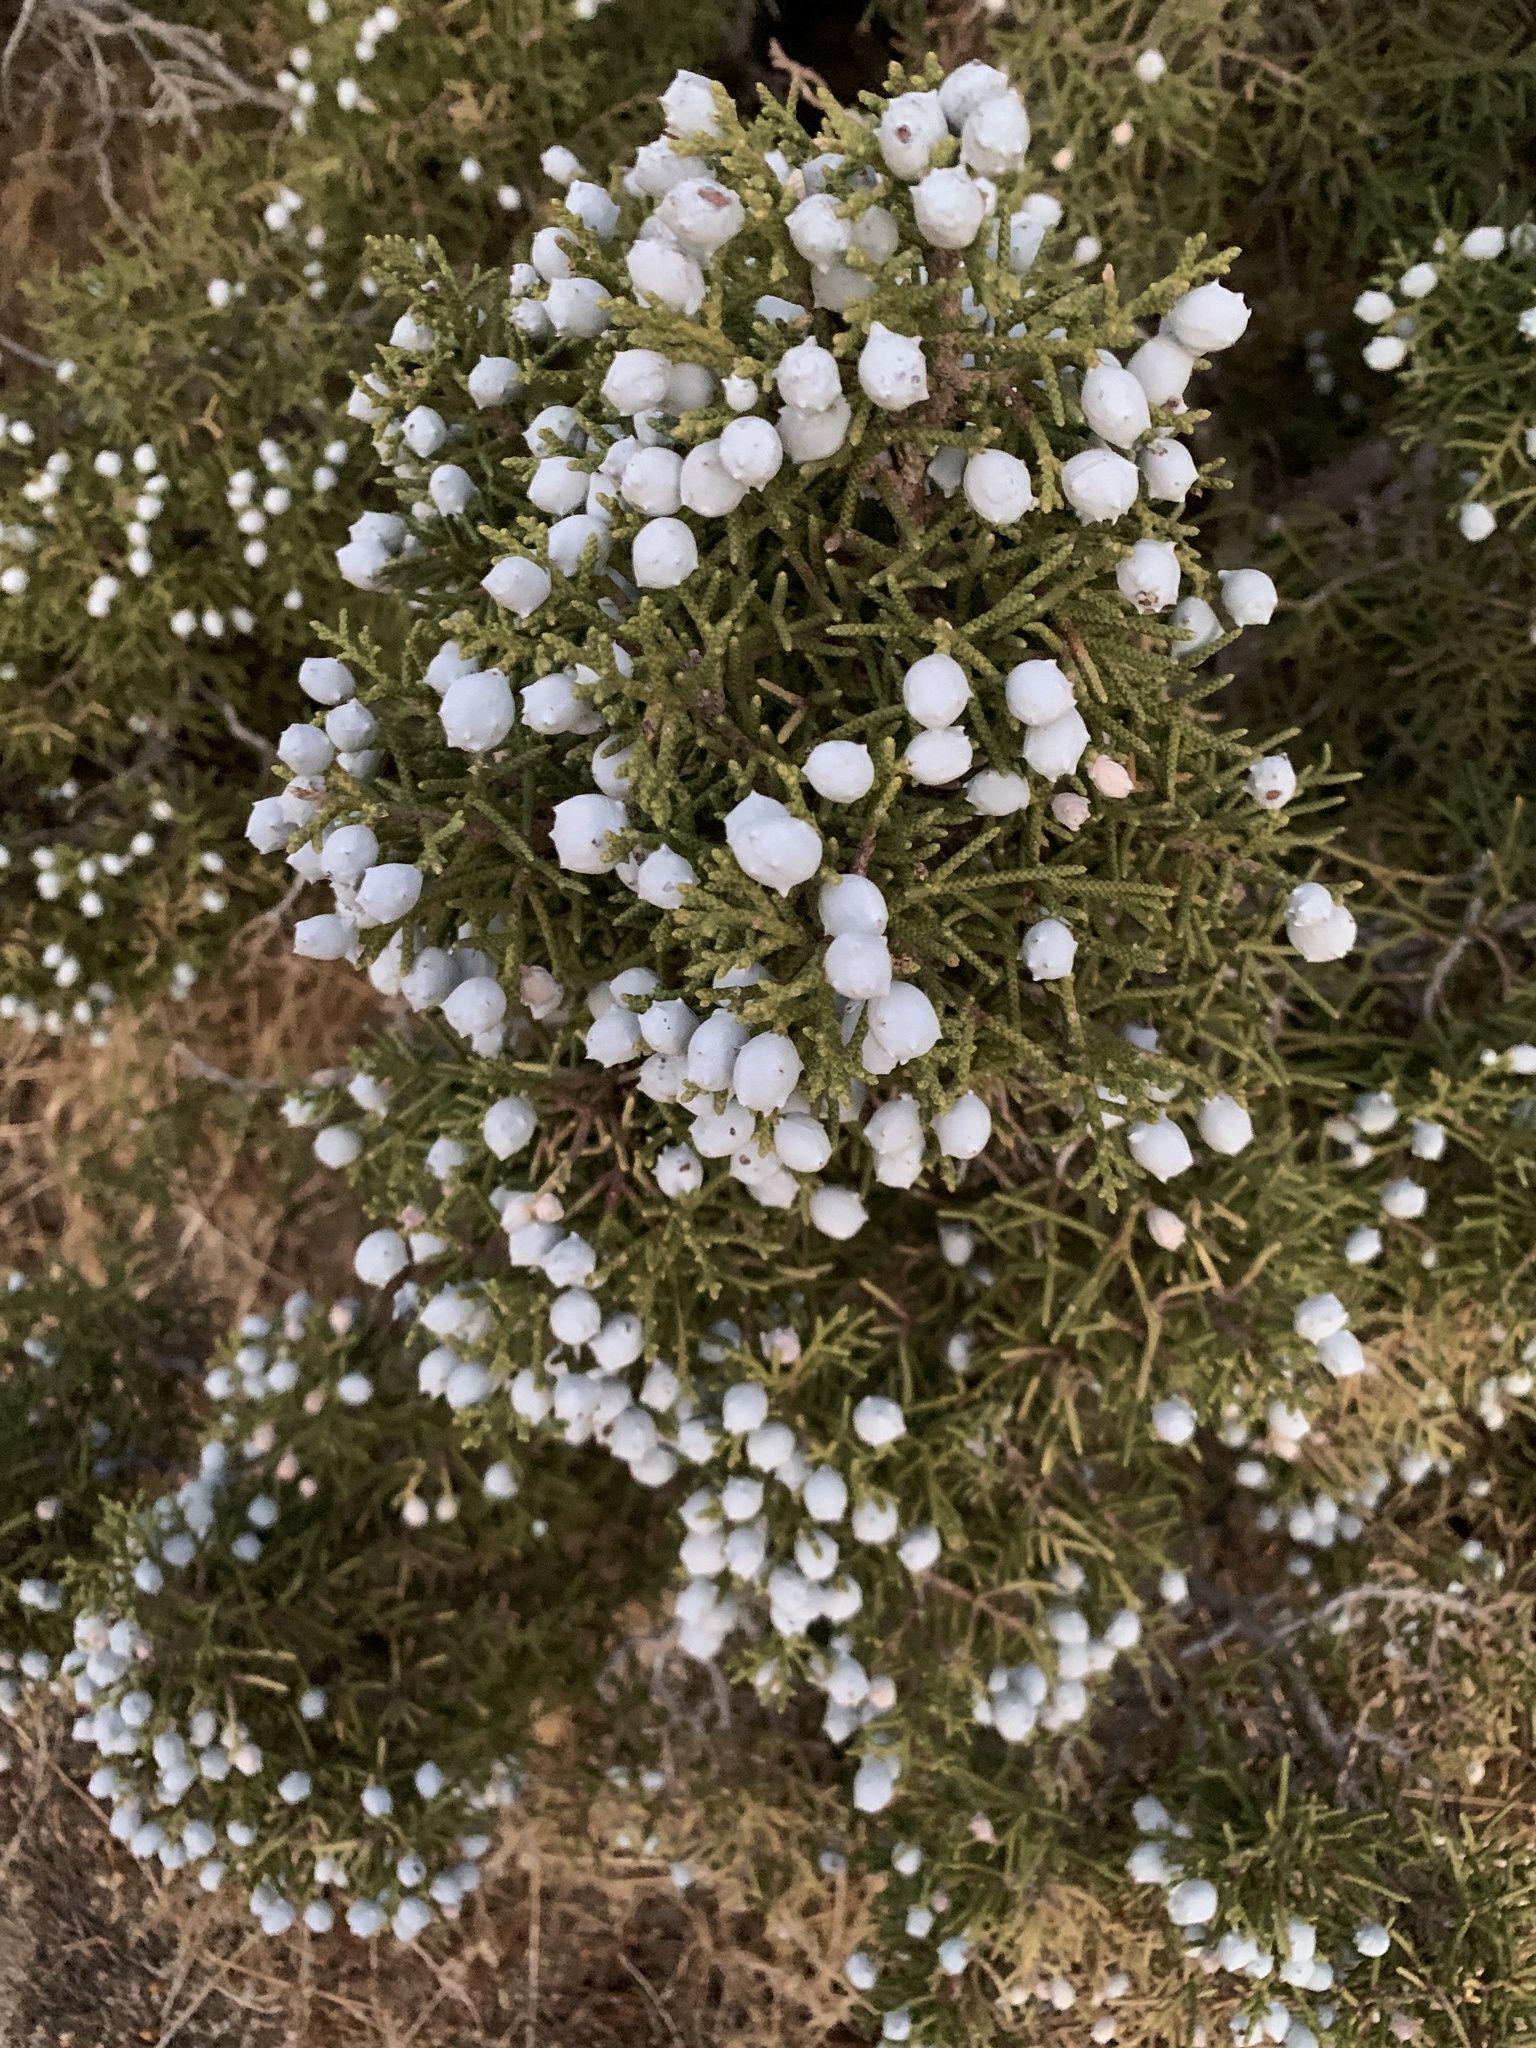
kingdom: Plantae
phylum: Tracheophyta
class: Pinopsida
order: Pinales
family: Cupressaceae
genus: Juniperus
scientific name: Juniperus californica
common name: California juniper
